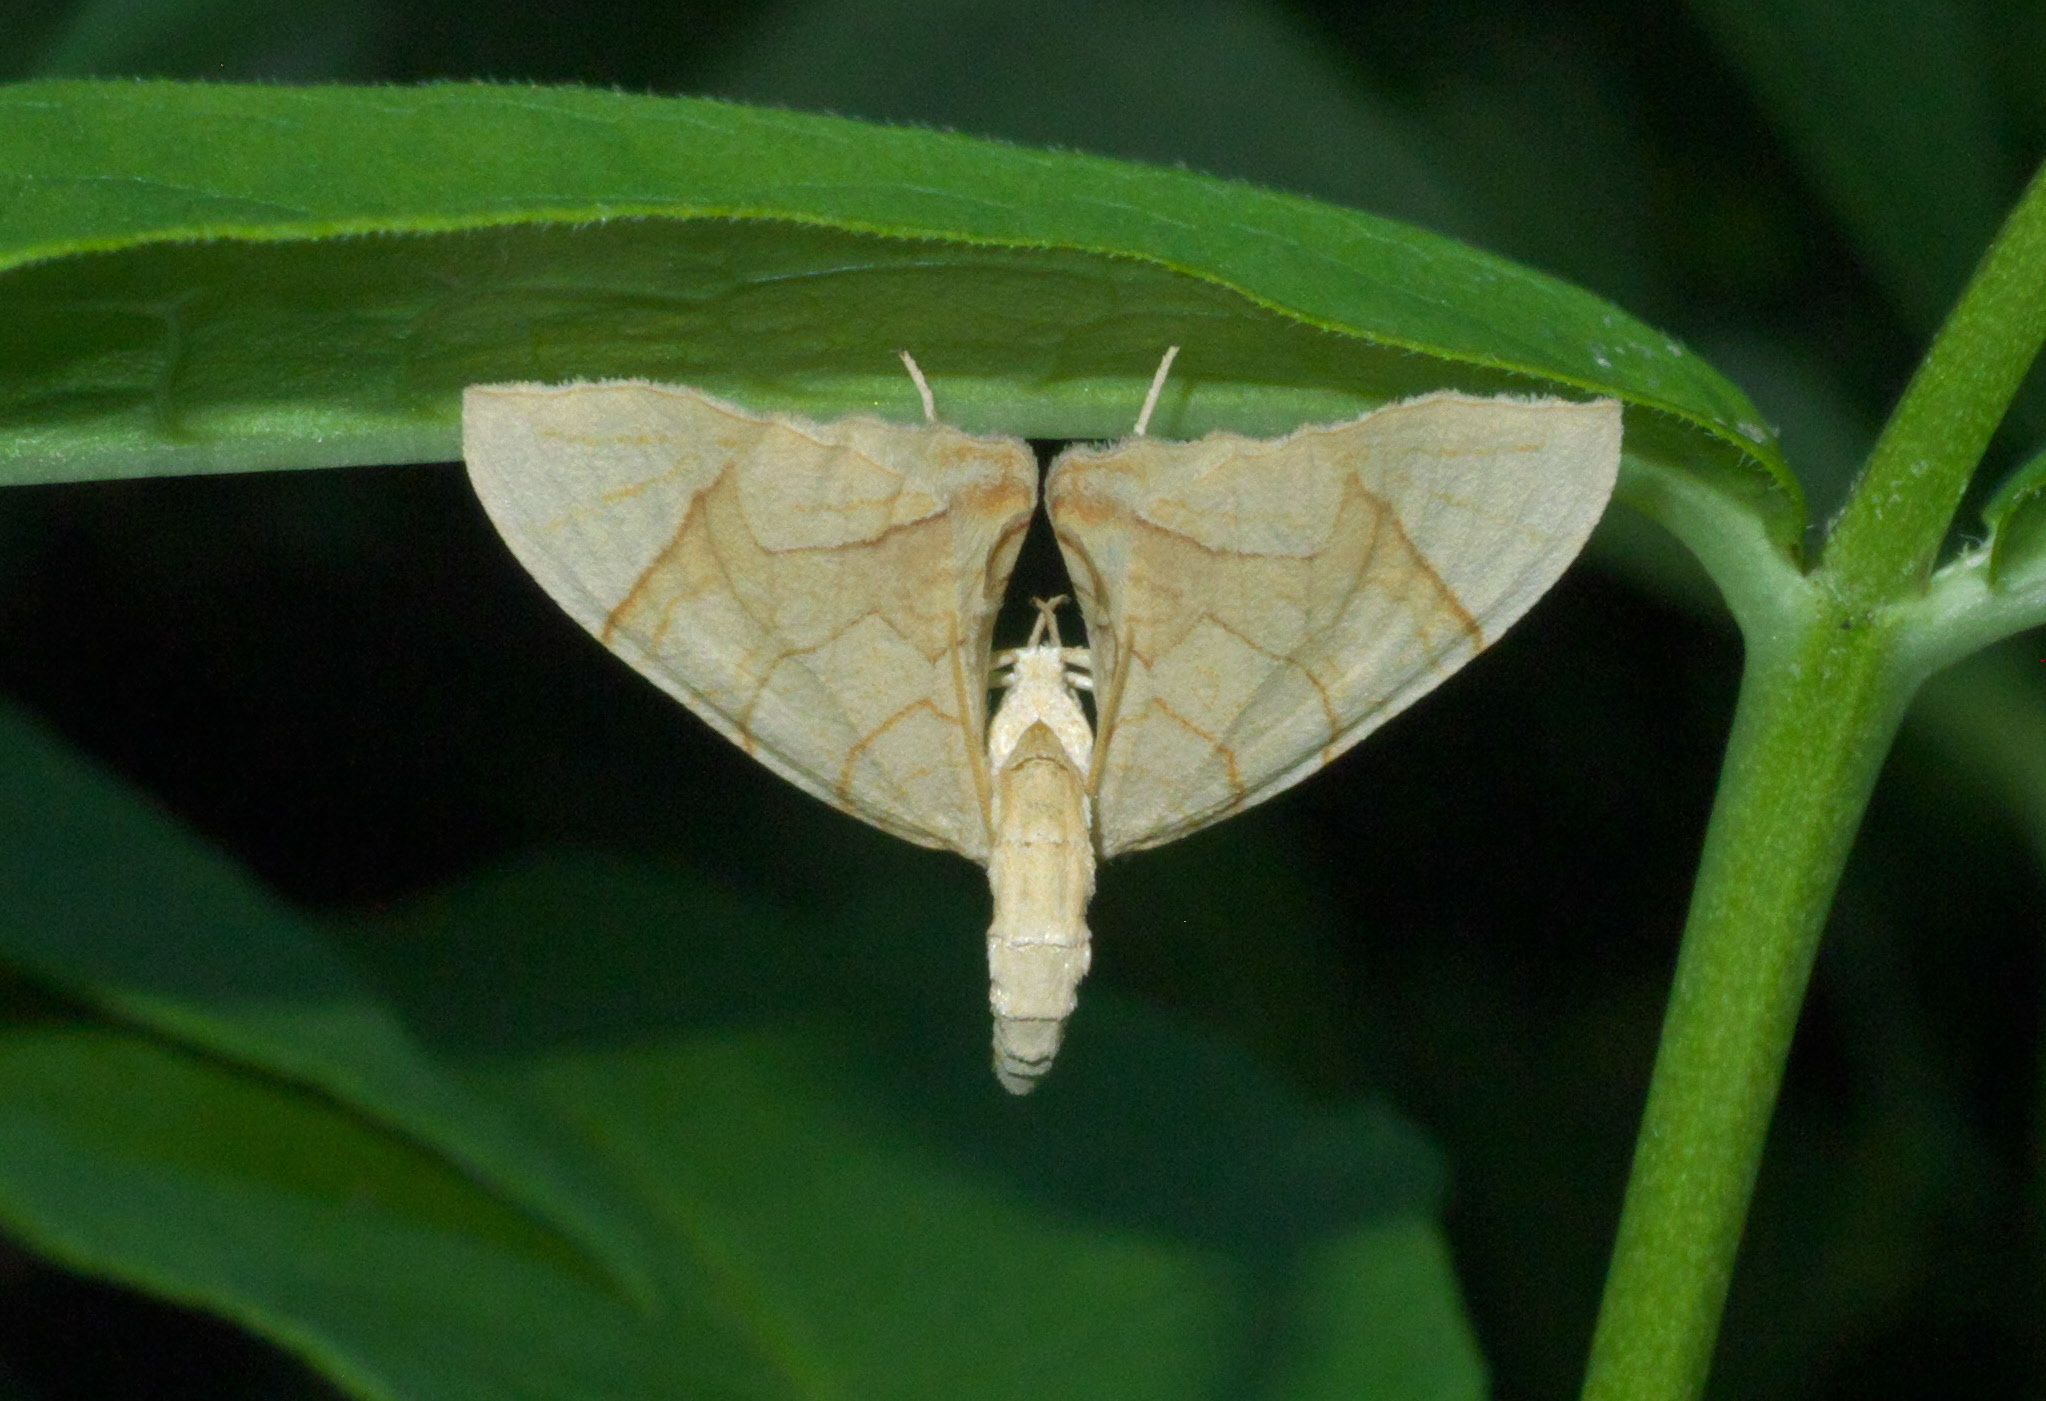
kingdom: Animalia
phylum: Arthropoda
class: Insecta
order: Lepidoptera
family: Geometridae
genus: Eulithis
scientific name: Eulithis
